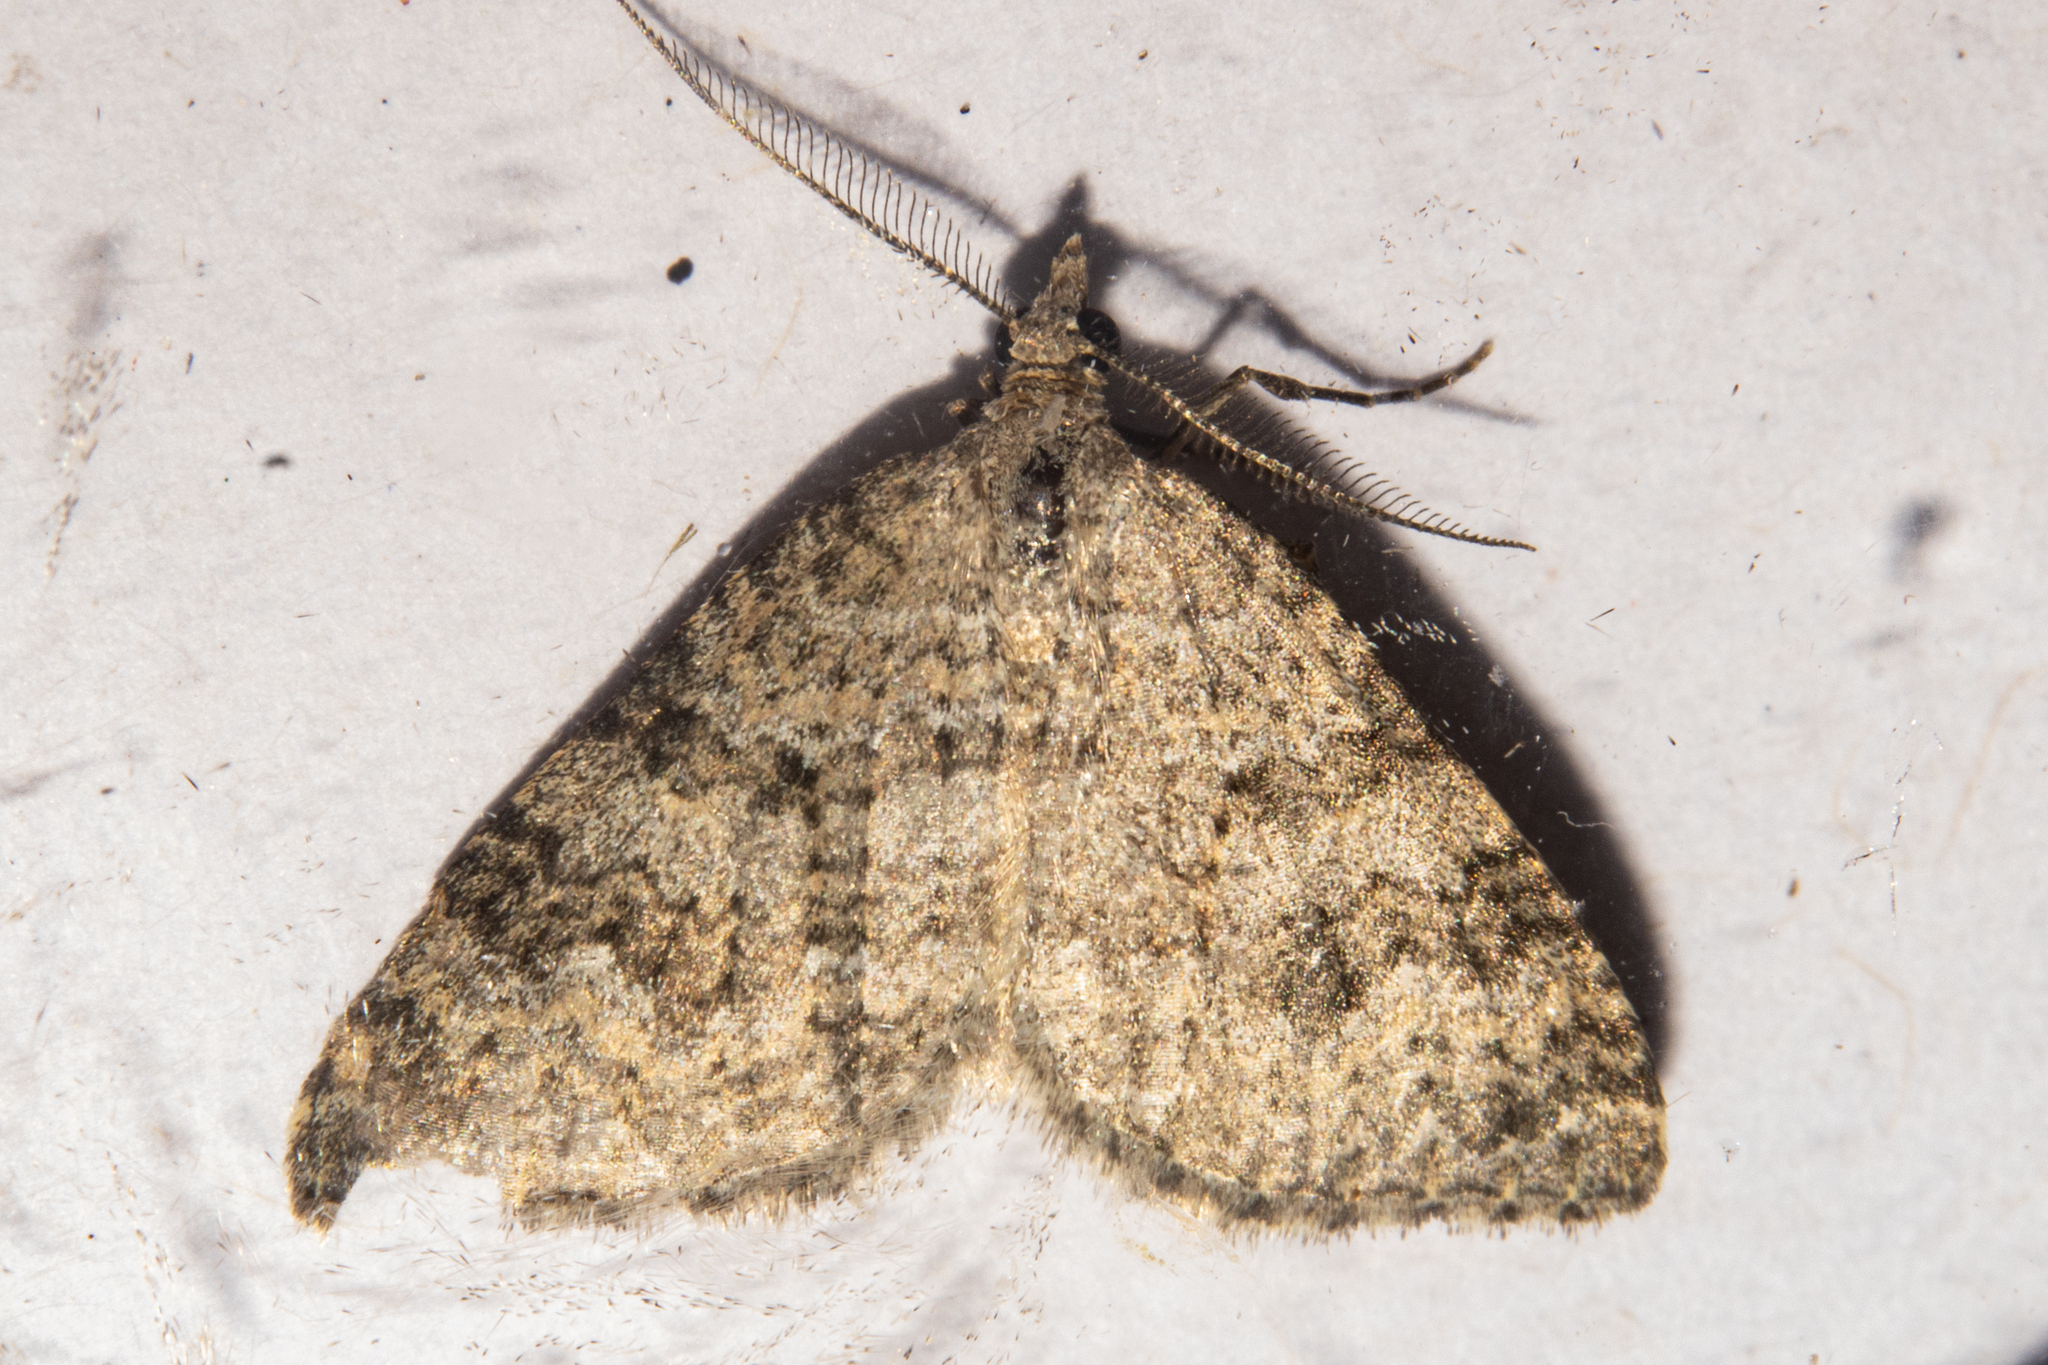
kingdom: Animalia
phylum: Arthropoda
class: Insecta
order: Lepidoptera
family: Geometridae
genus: Helastia
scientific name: Helastia corcularia
